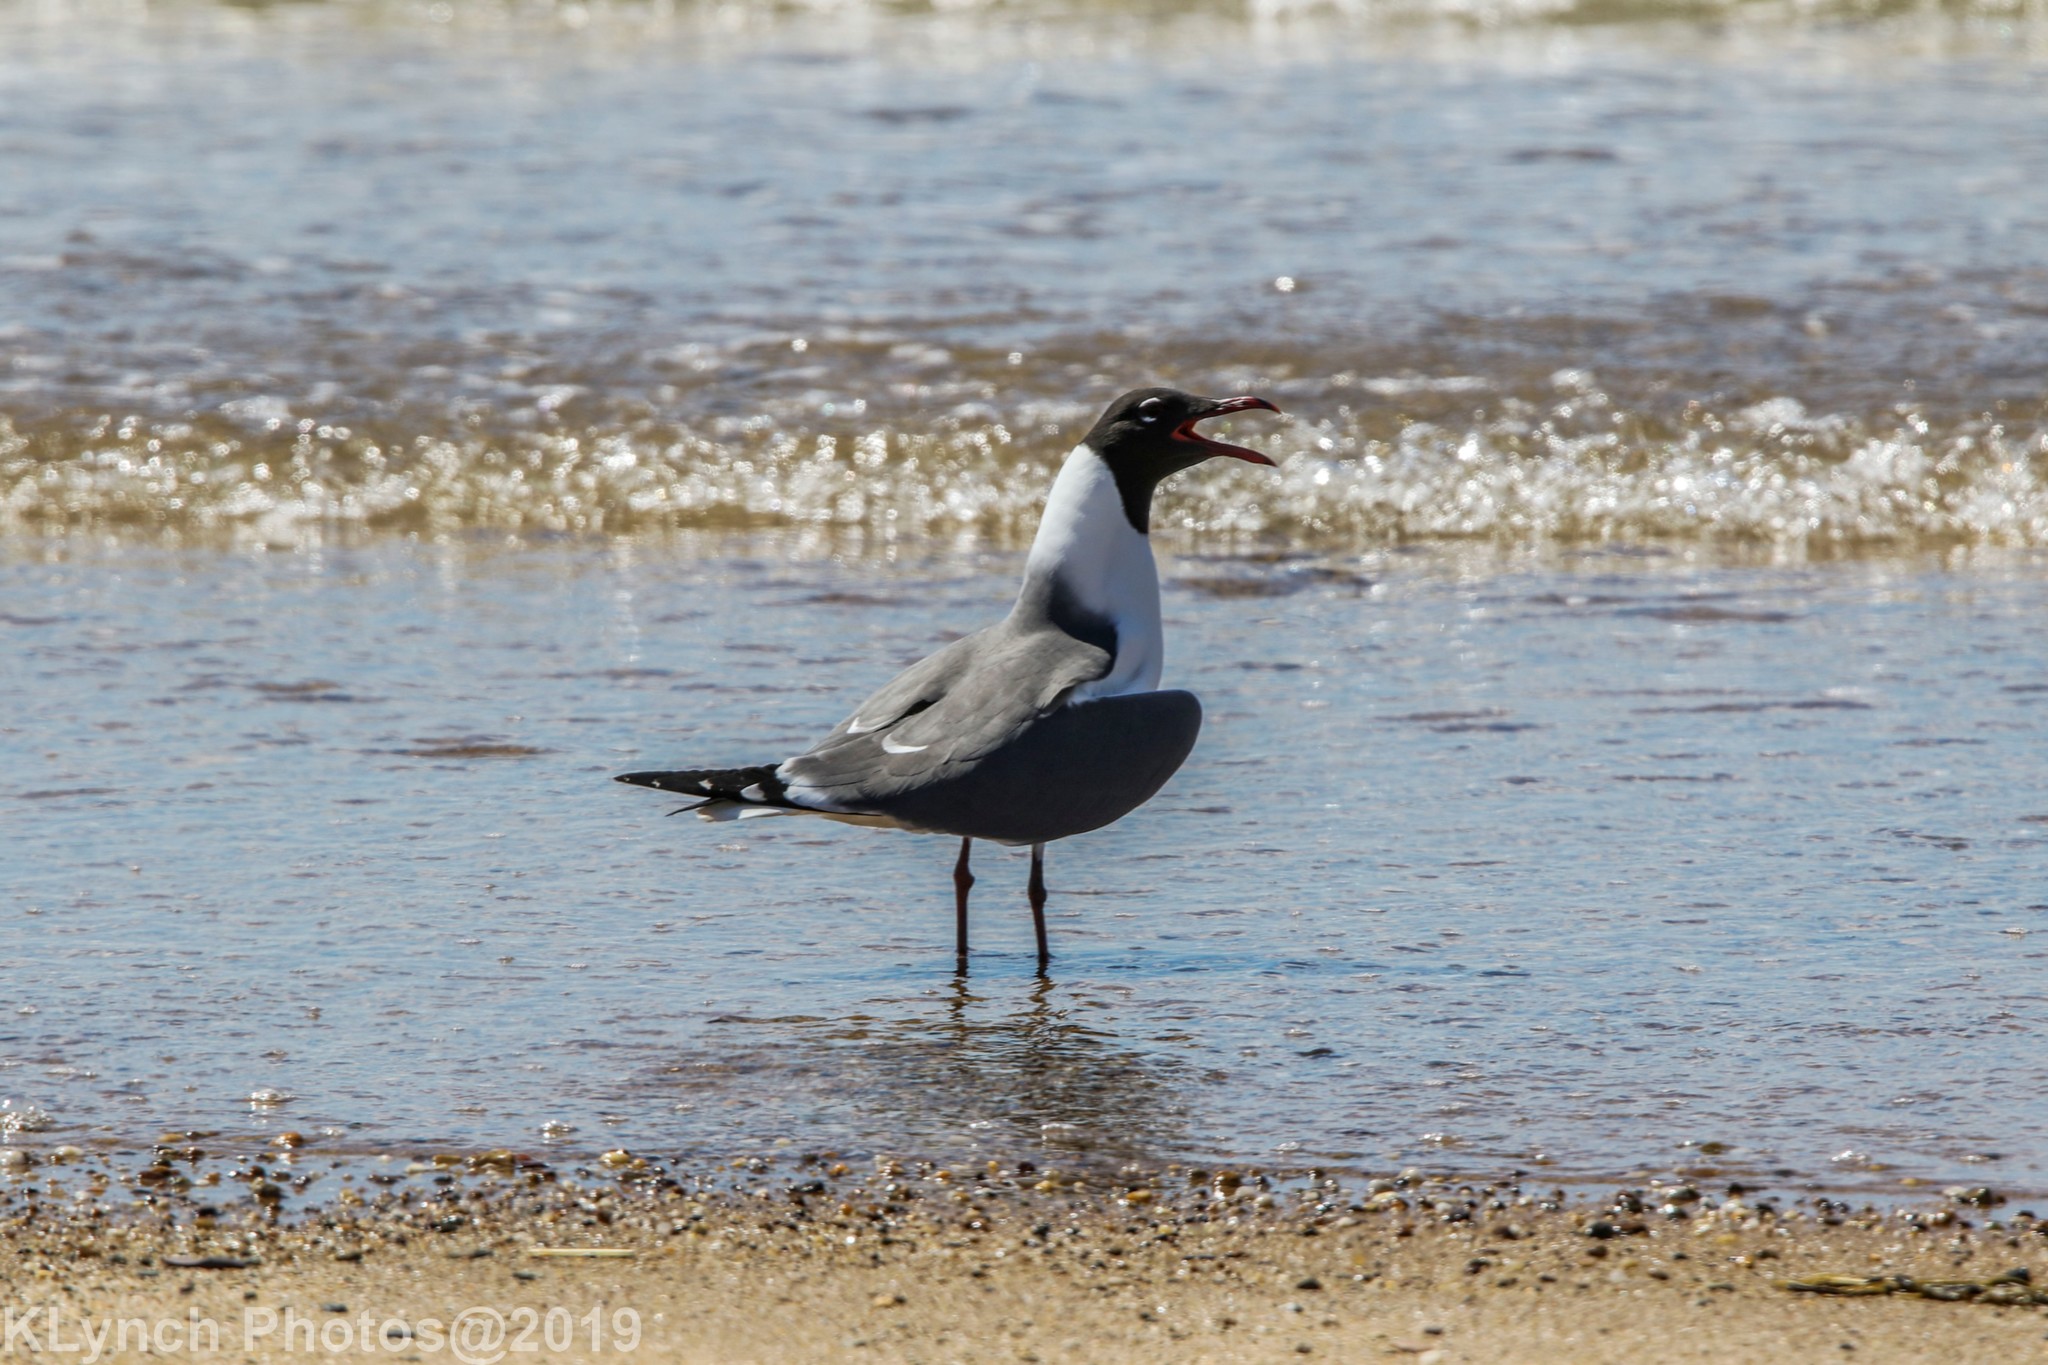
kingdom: Animalia
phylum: Chordata
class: Aves
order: Charadriiformes
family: Laridae
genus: Leucophaeus
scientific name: Leucophaeus atricilla
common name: Laughing gull
